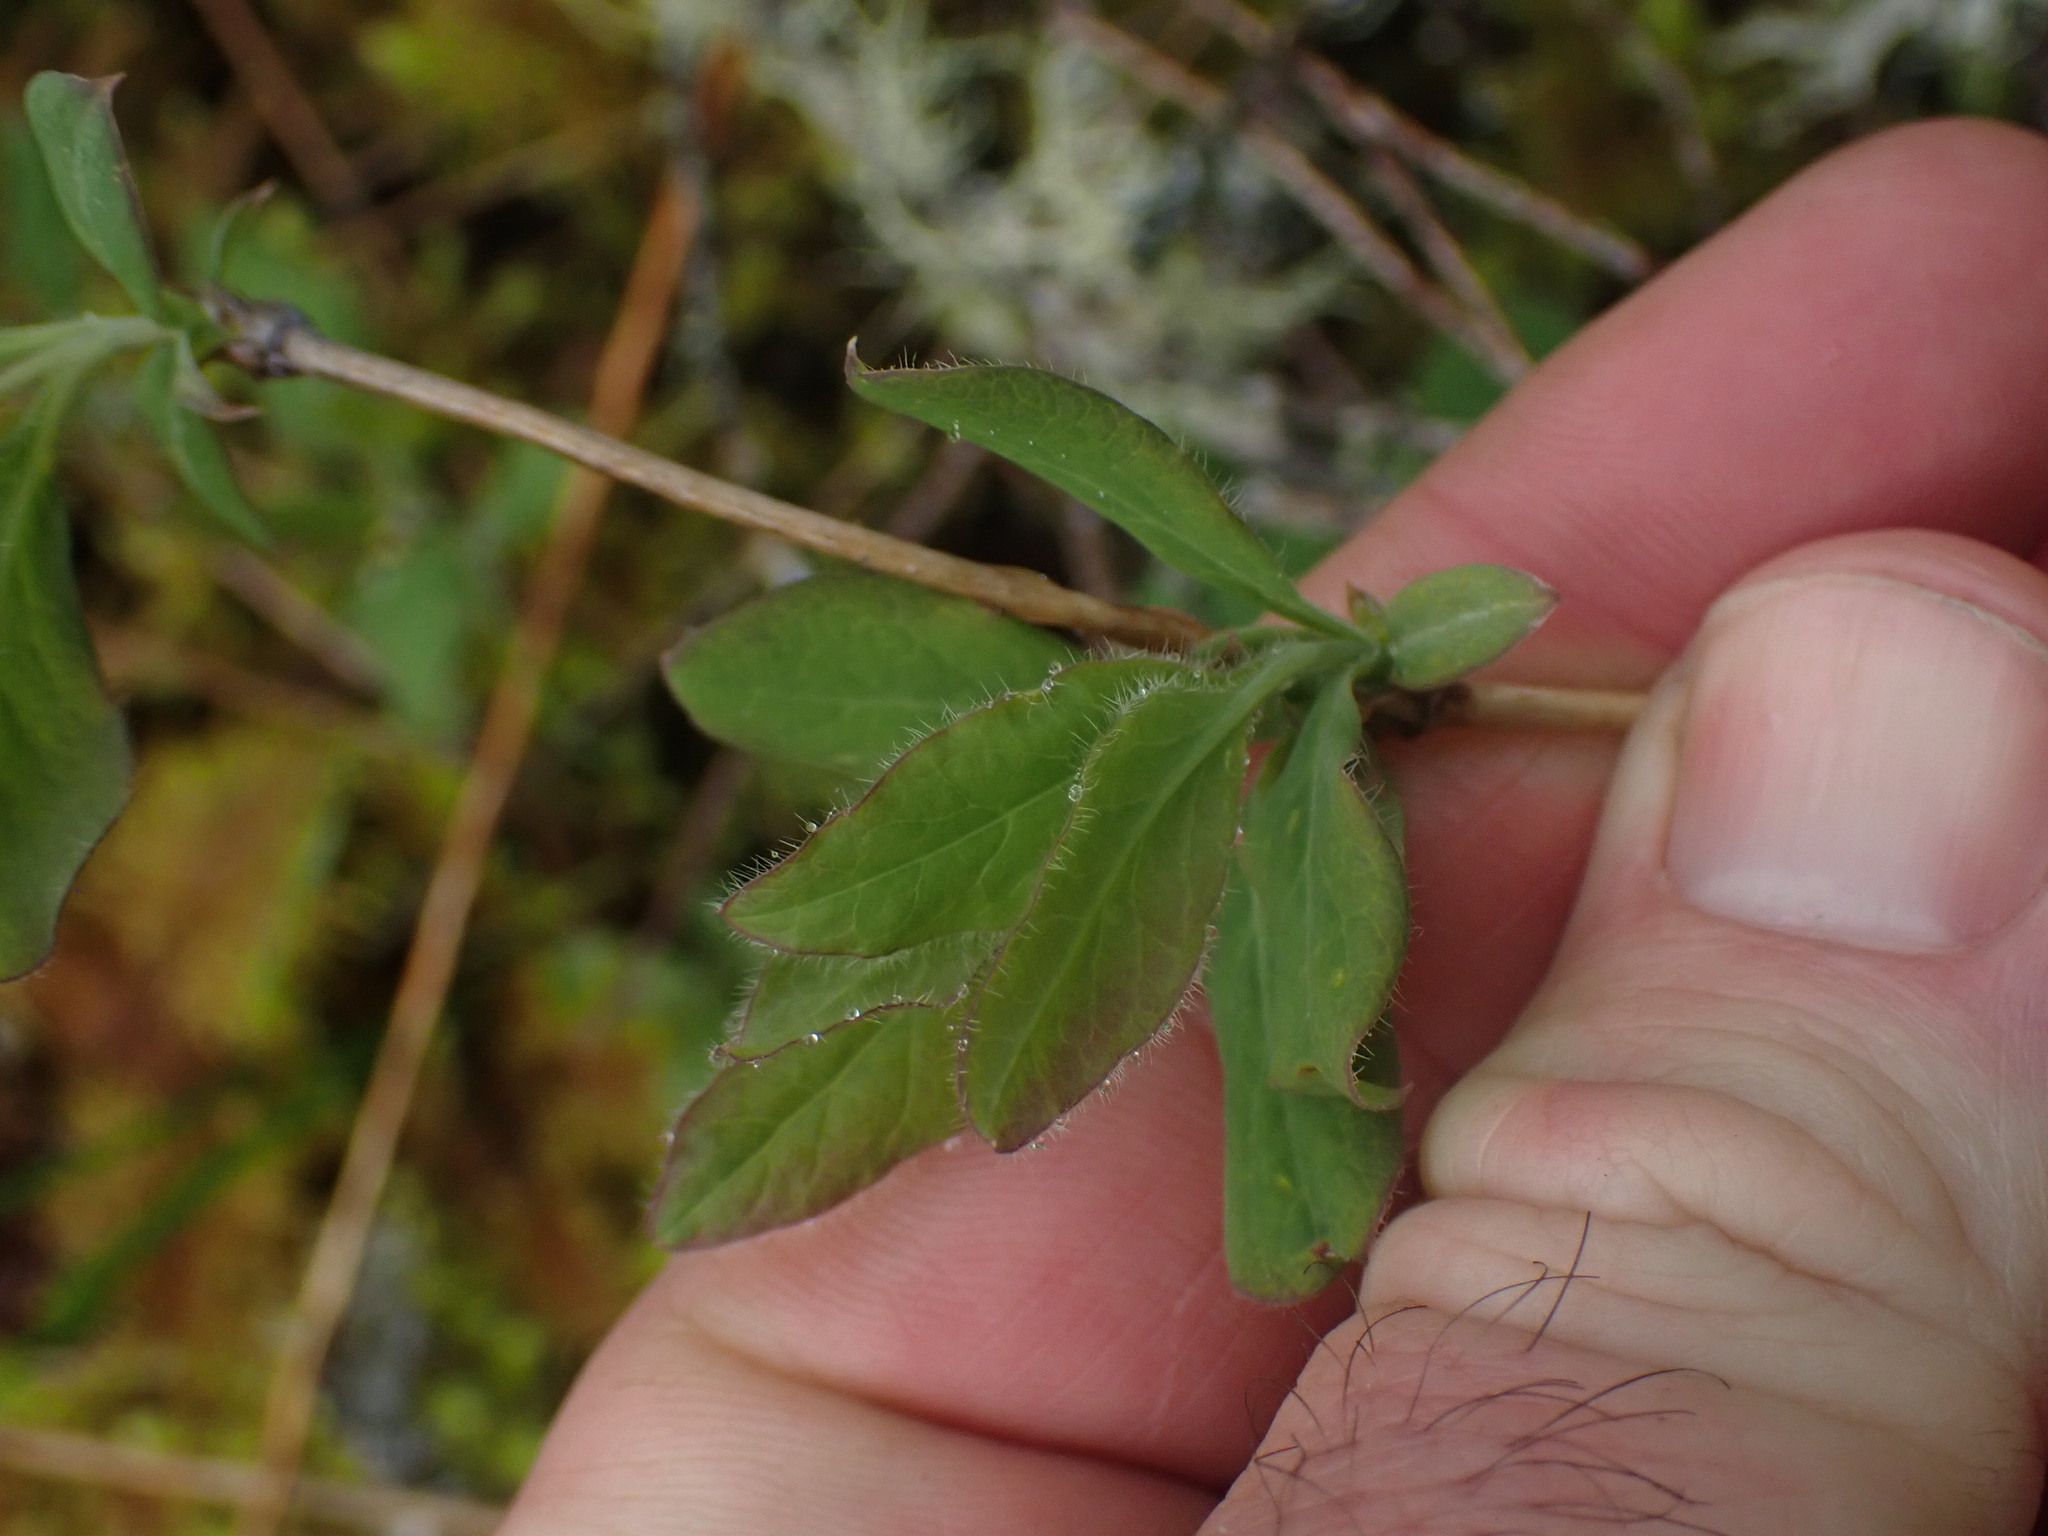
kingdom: Plantae
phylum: Tracheophyta
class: Magnoliopsida
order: Dipsacales
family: Caprifoliaceae
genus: Lonicera
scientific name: Lonicera ciliosa
